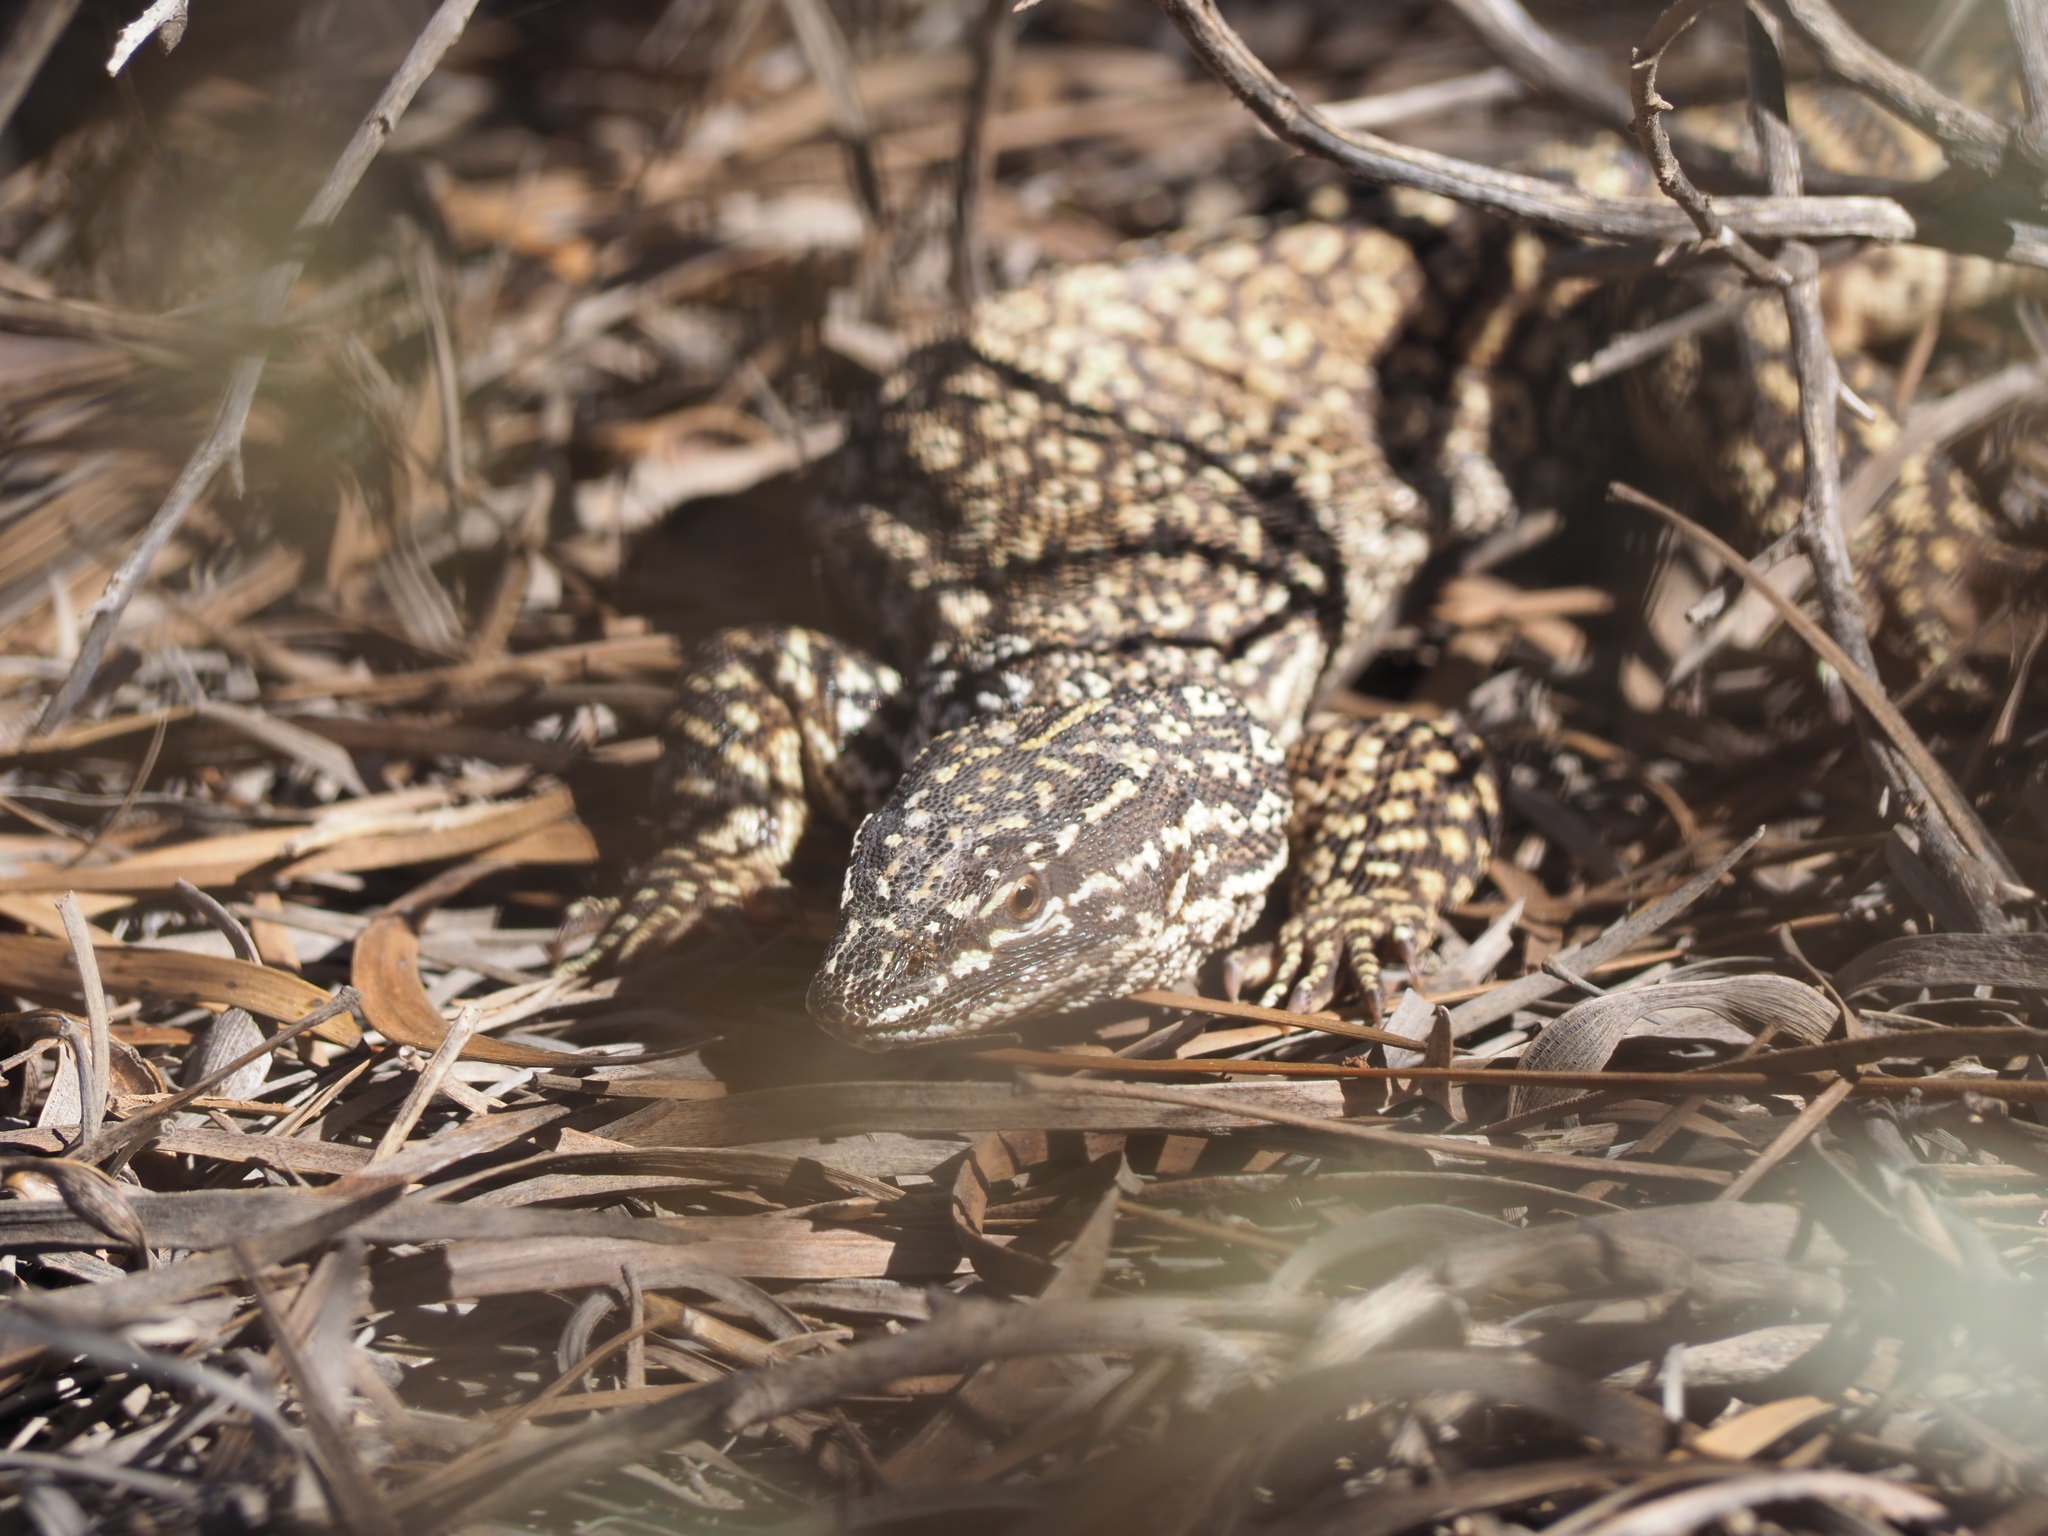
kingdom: Animalia
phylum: Chordata
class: Squamata
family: Varanidae
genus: Varanus
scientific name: Varanus acanthurus
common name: Ridgetail monitor
